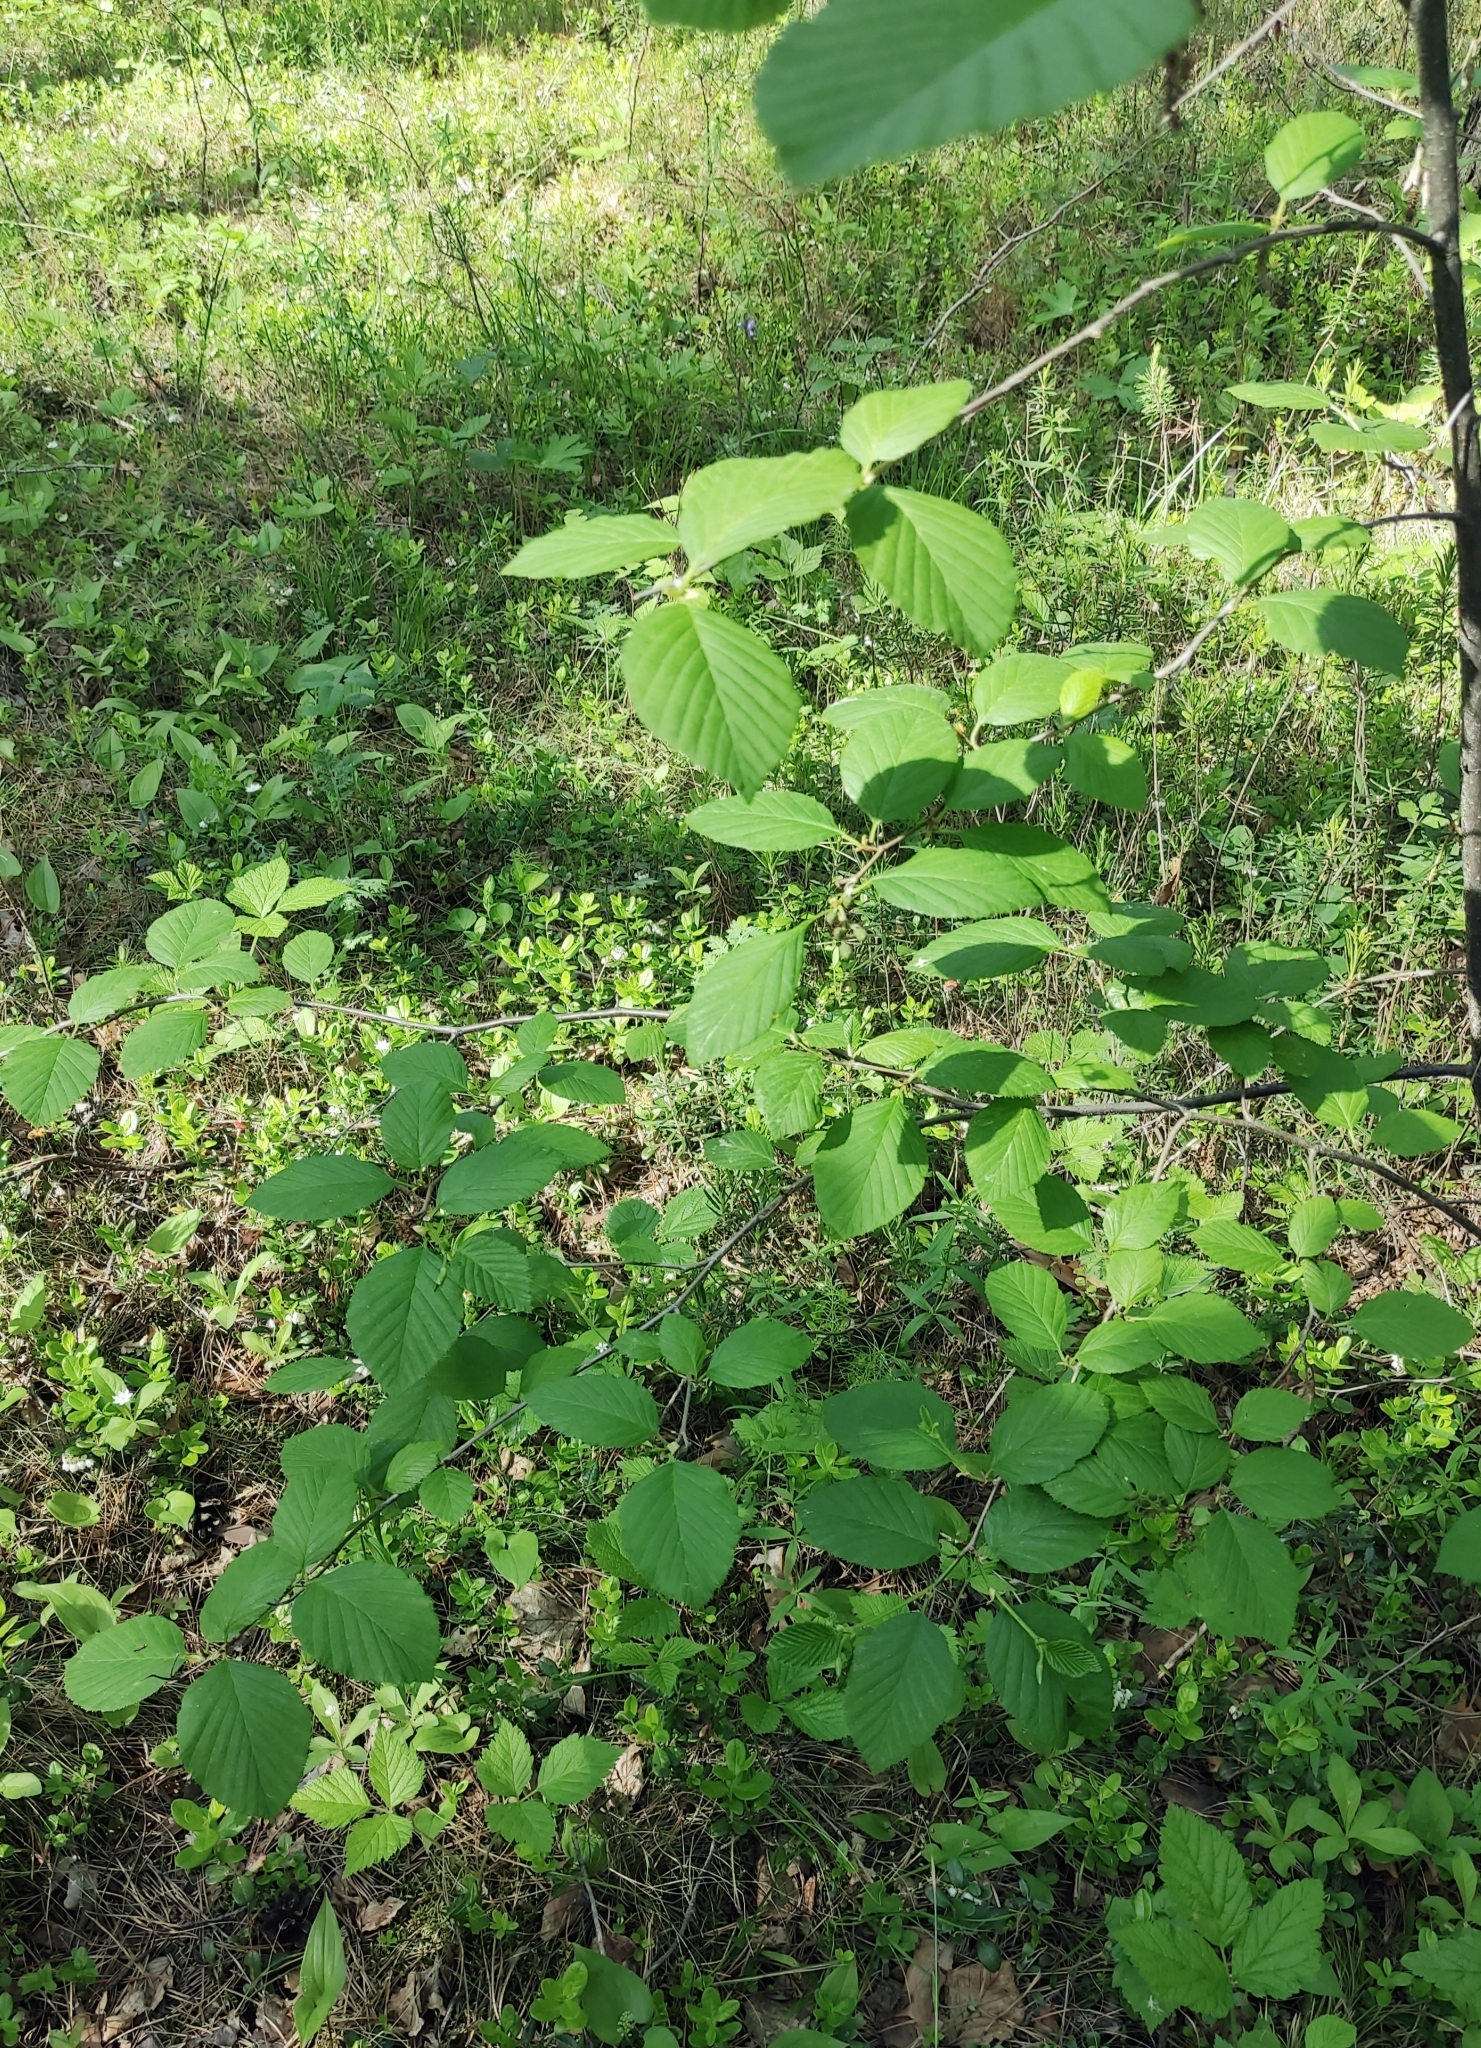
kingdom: Plantae
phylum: Tracheophyta
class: Magnoliopsida
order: Fagales
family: Betulaceae
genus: Alnus
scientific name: Alnus alnobetula
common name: Green alder
